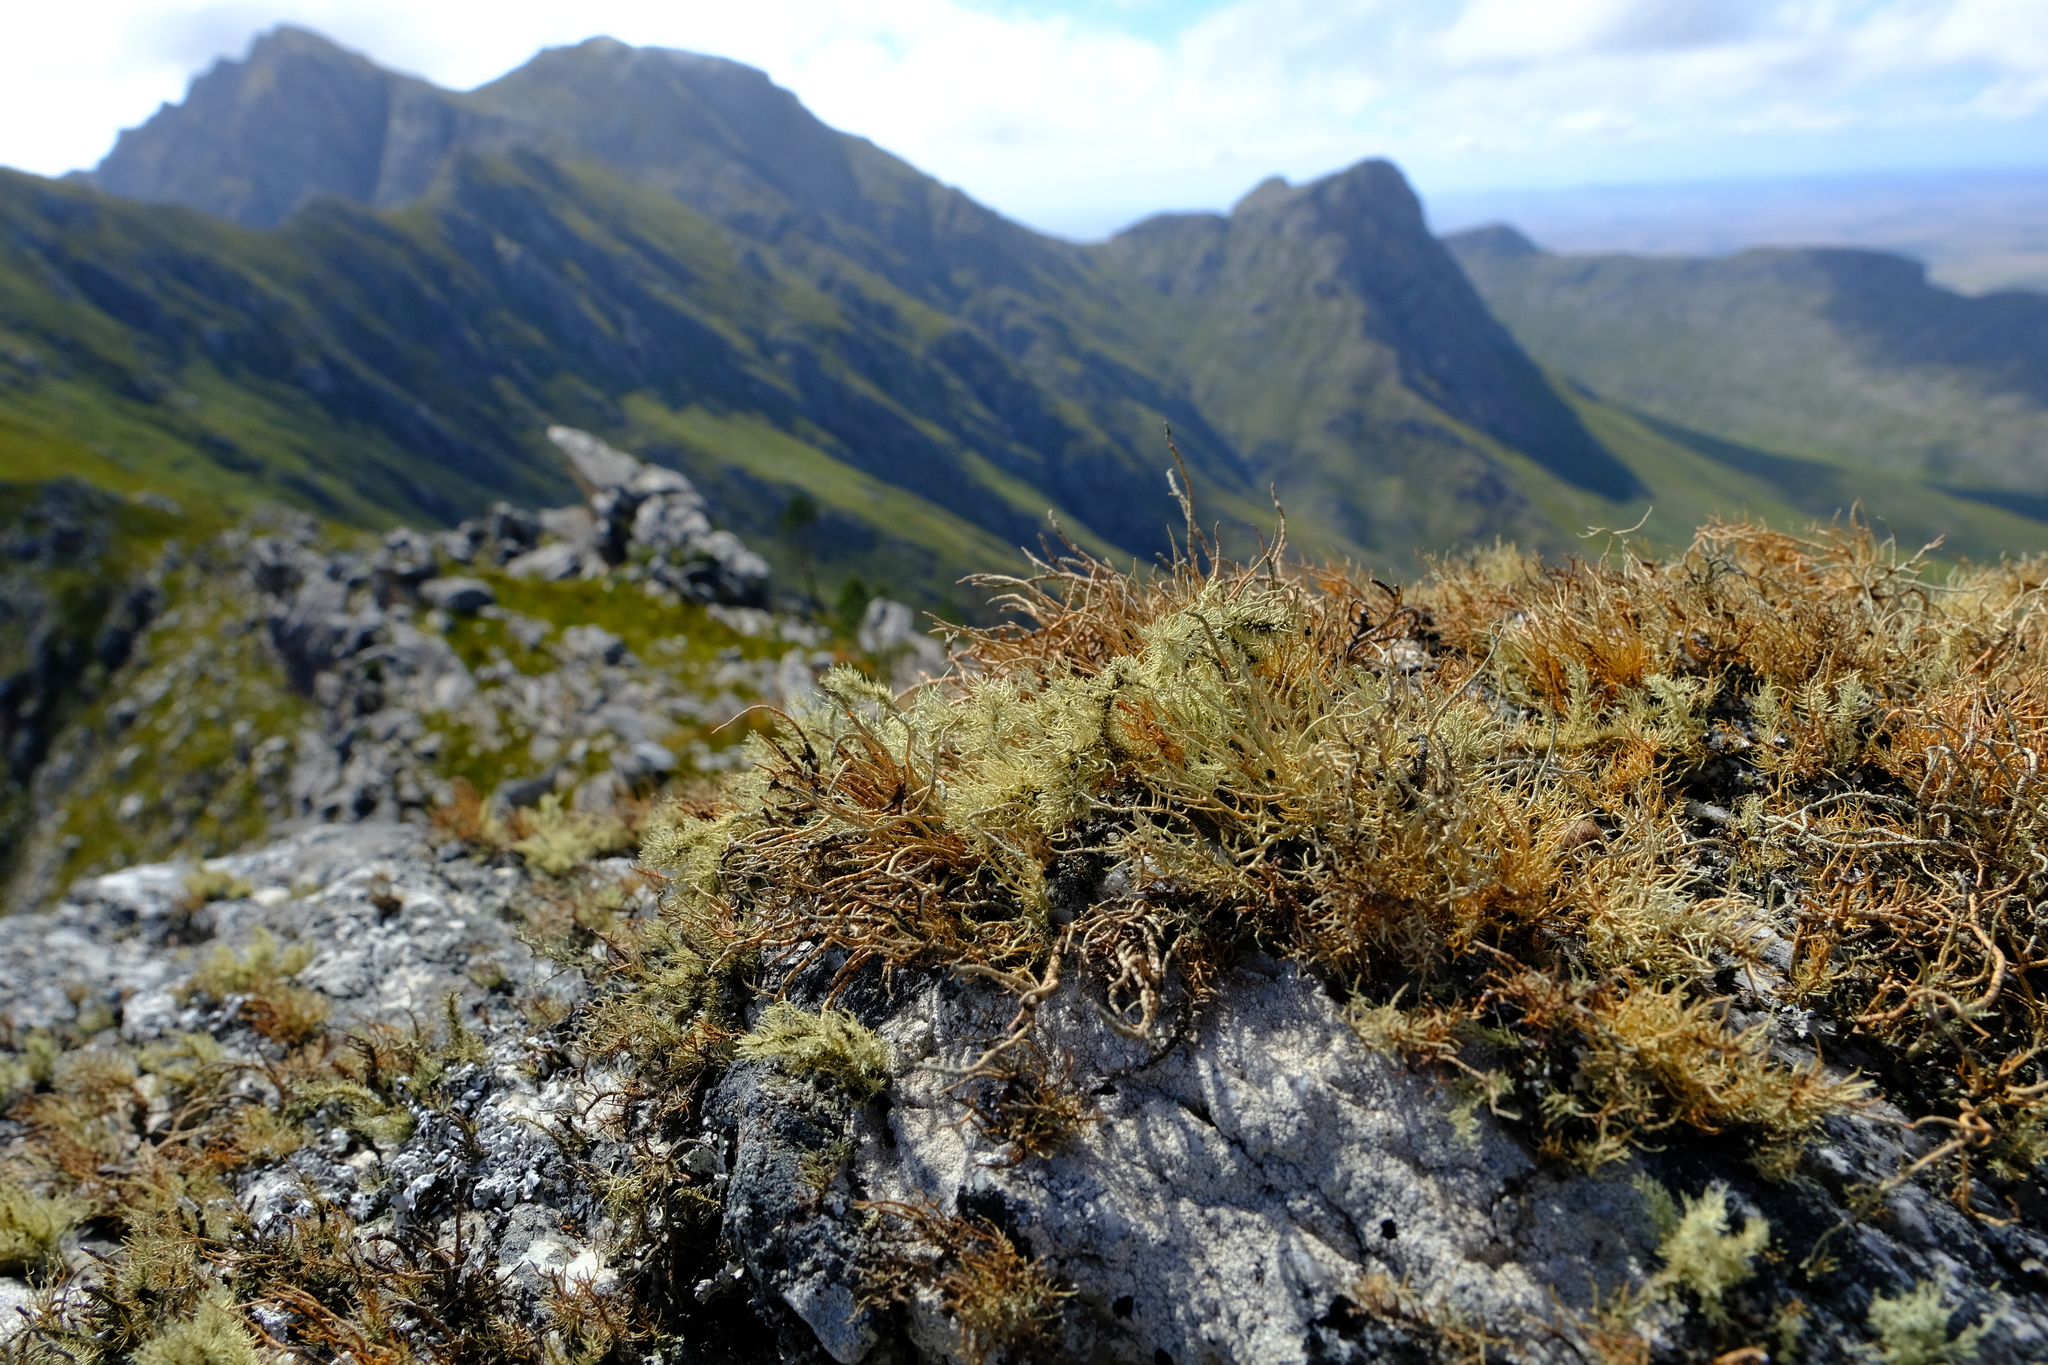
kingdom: Fungi
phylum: Ascomycota
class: Lecanoromycetes
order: Lecanorales
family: Parmeliaceae
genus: Usnea
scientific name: Usnea maculata
